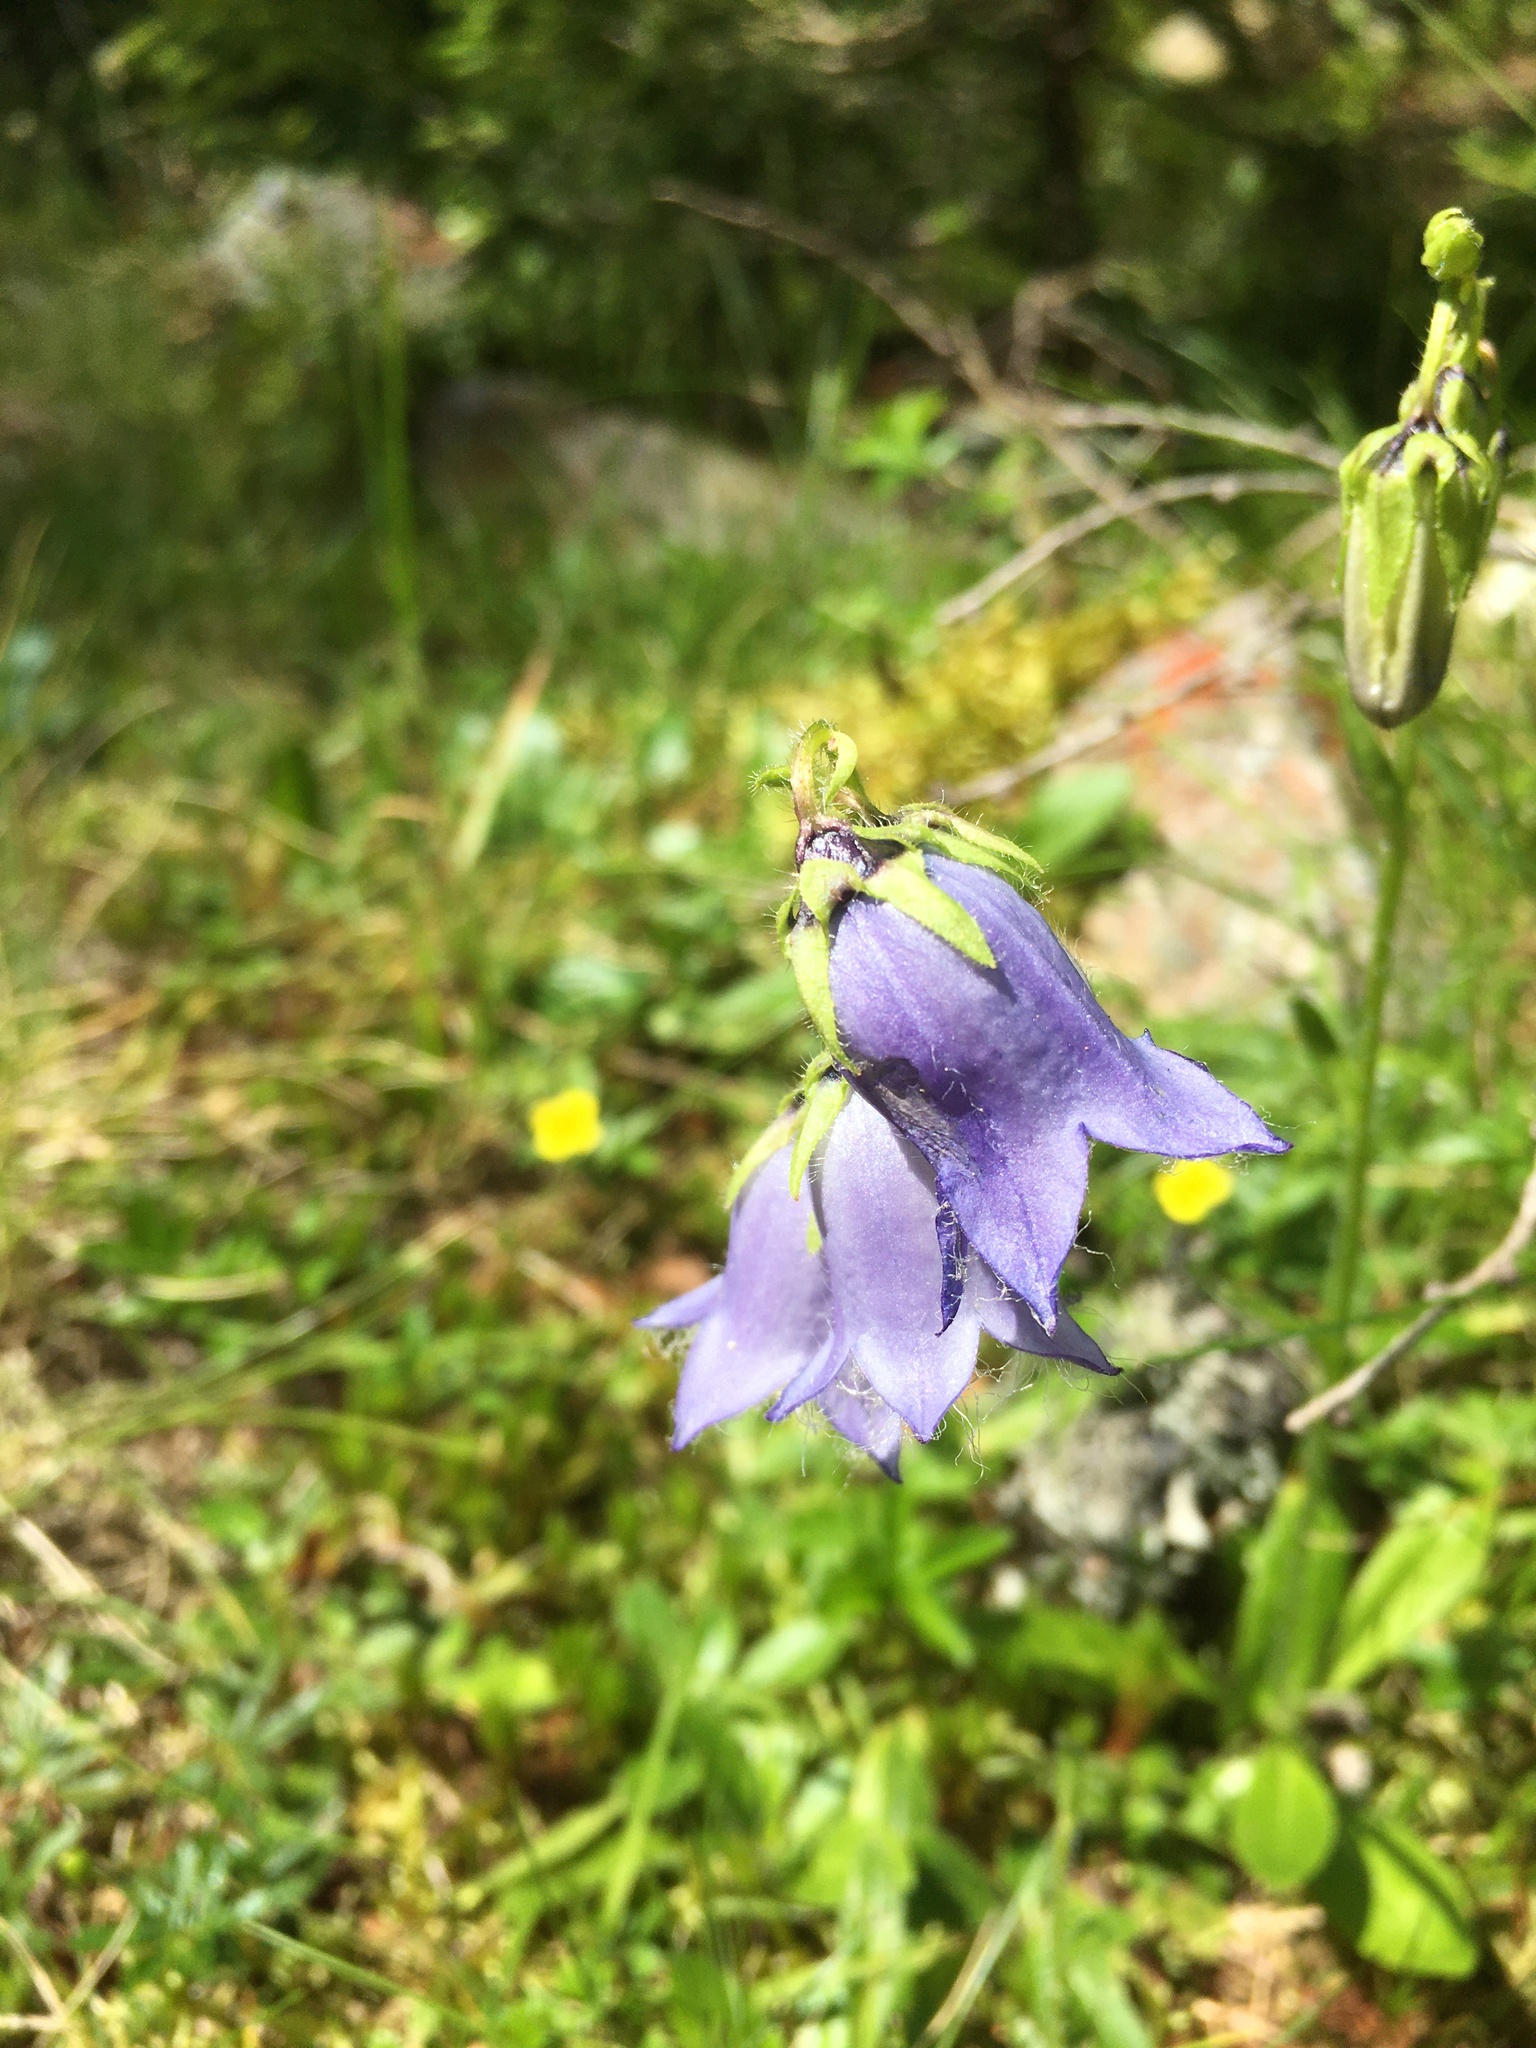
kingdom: Plantae
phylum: Tracheophyta
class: Magnoliopsida
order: Asterales
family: Campanulaceae
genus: Campanula
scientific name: Campanula barbata
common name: Bearded bellflower
